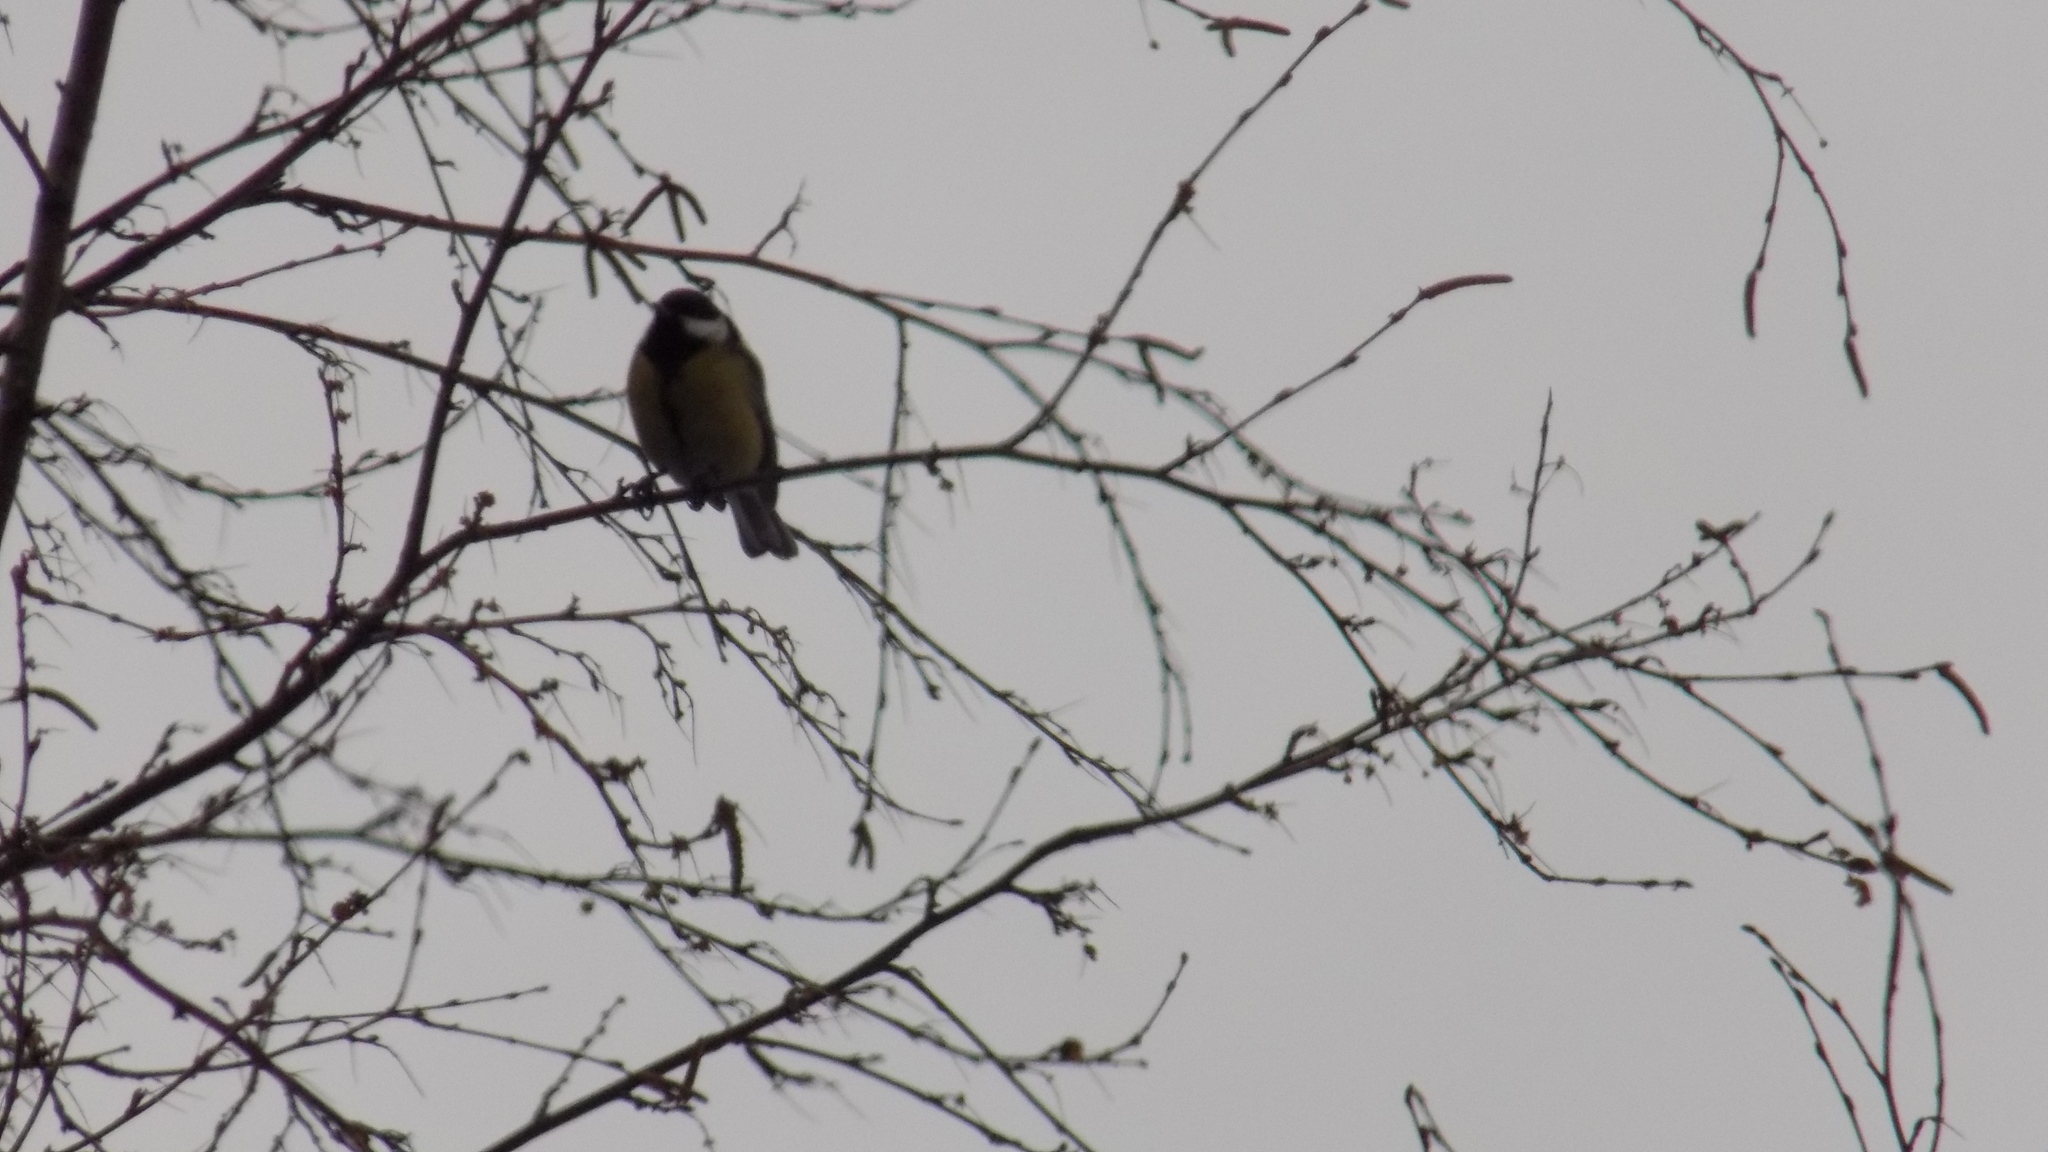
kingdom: Animalia
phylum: Chordata
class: Aves
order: Passeriformes
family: Paridae
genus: Parus
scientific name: Parus major
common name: Great tit
